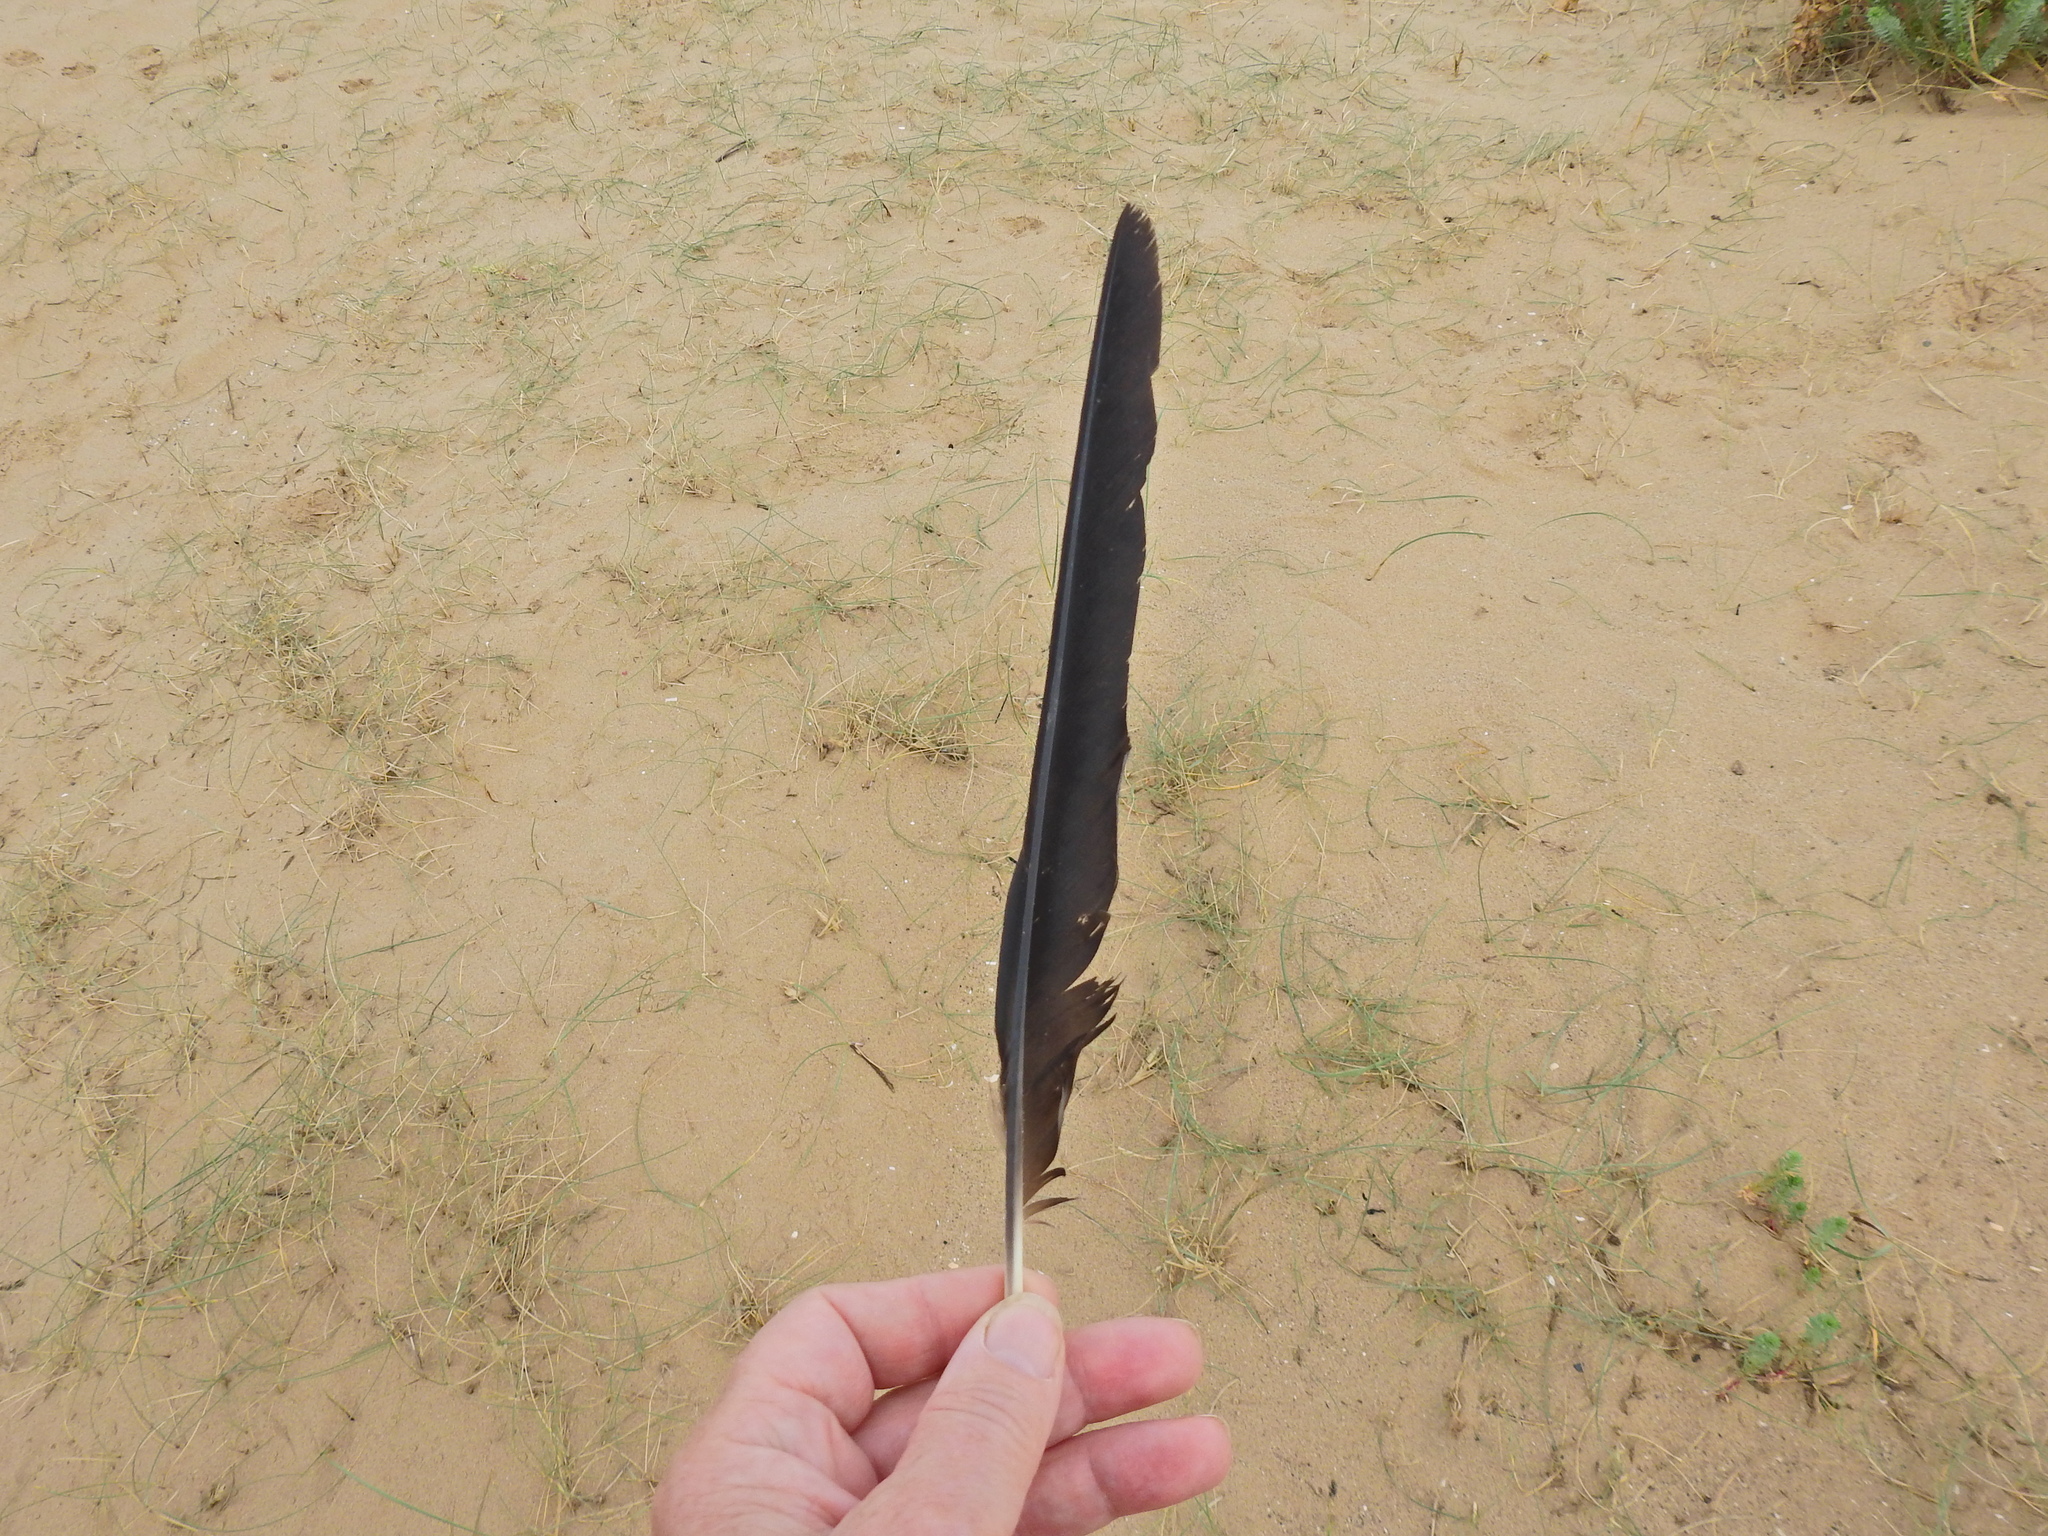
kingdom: Animalia
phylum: Chordata
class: Aves
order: Passeriformes
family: Corvidae
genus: Corvus
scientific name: Corvus corone
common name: Carrion crow
